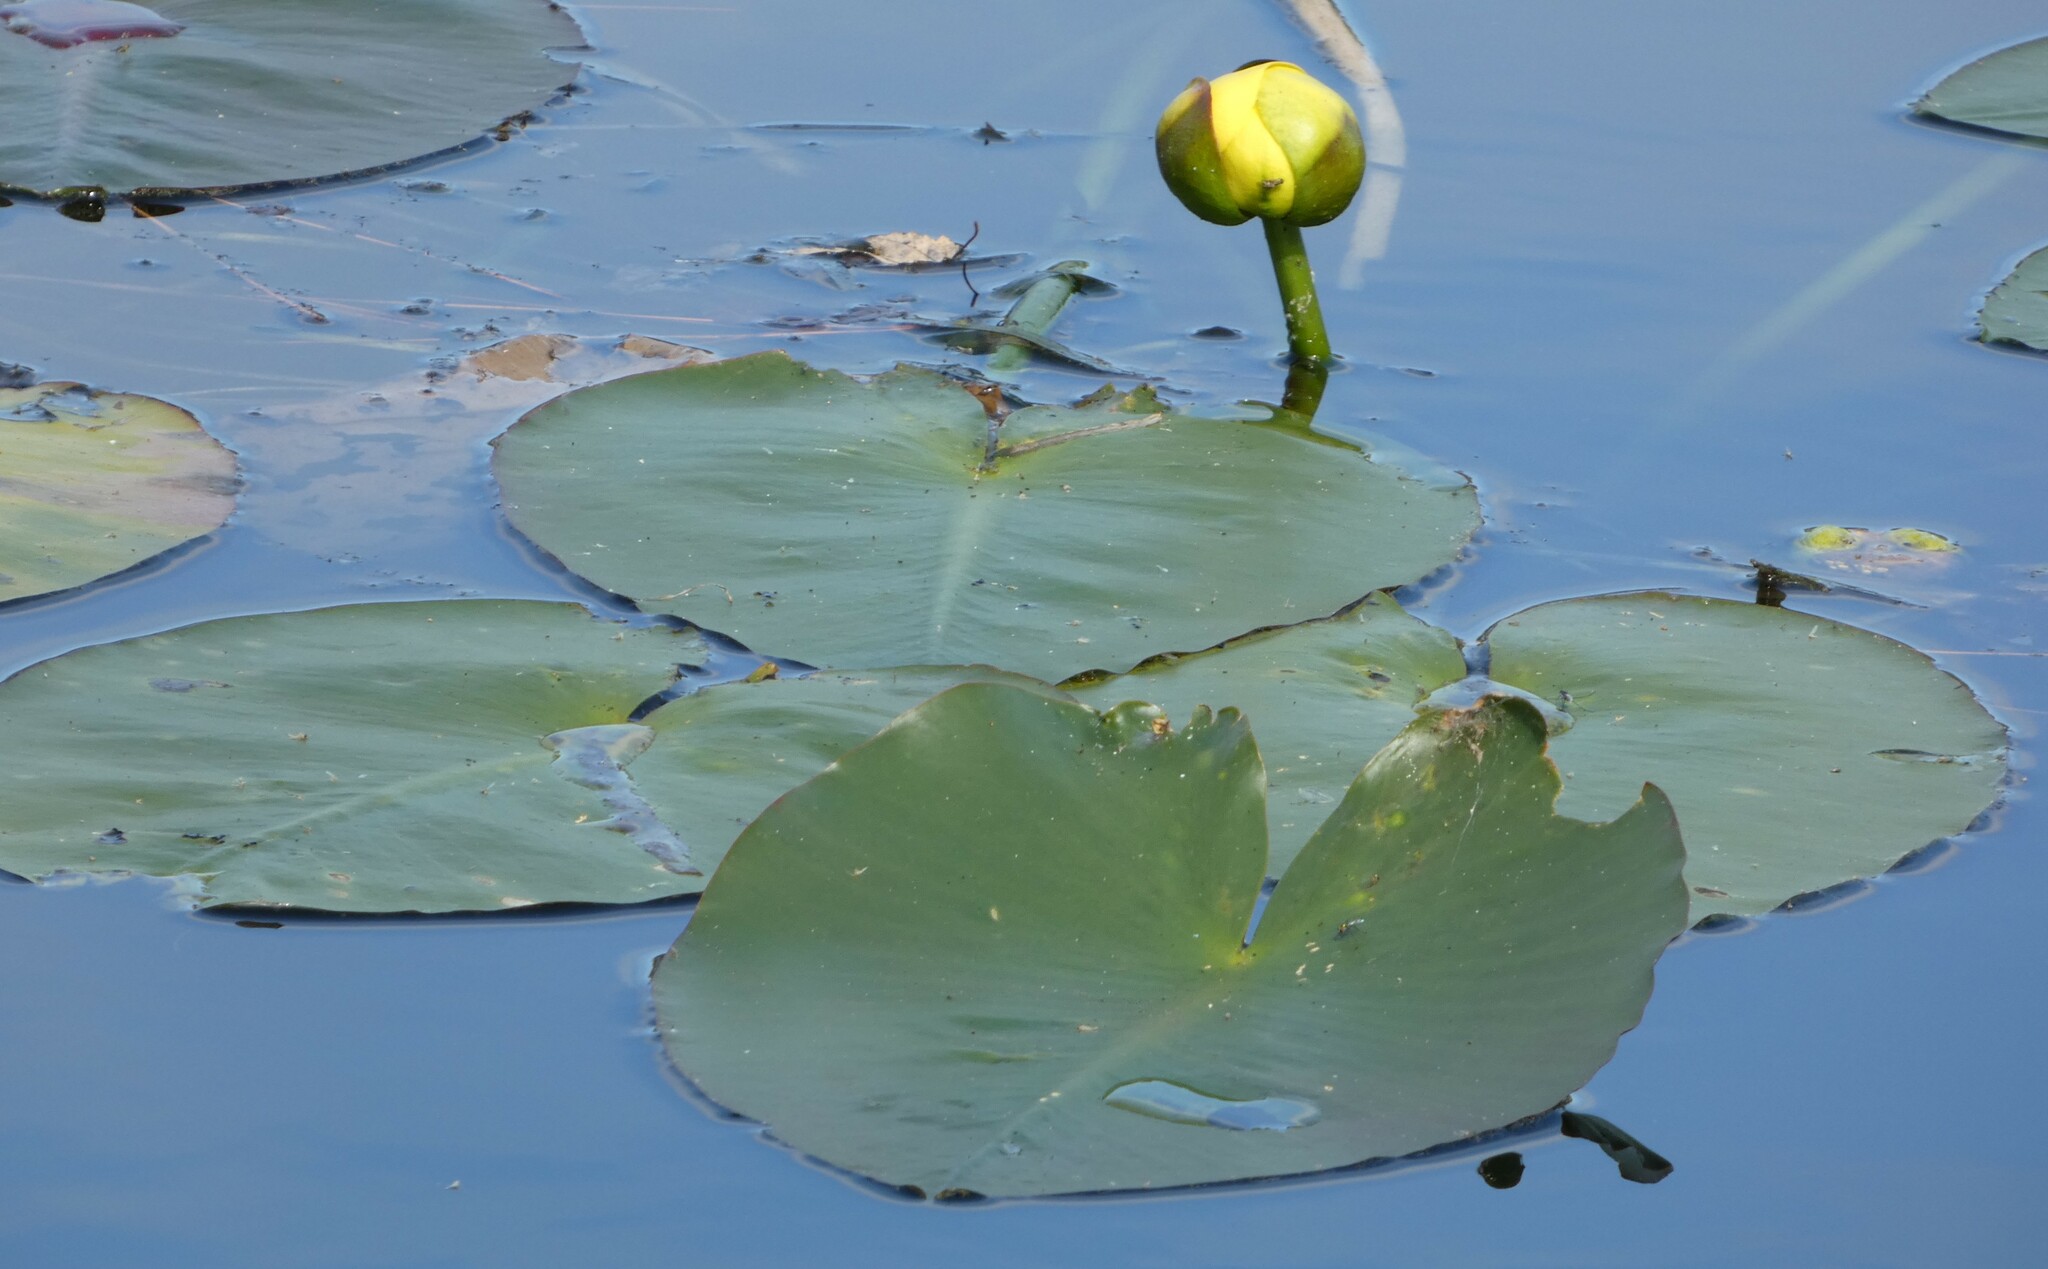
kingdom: Plantae
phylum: Tracheophyta
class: Magnoliopsida
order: Nymphaeales
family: Nymphaeaceae
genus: Nuphar
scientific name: Nuphar advena
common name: Spatter-dock
